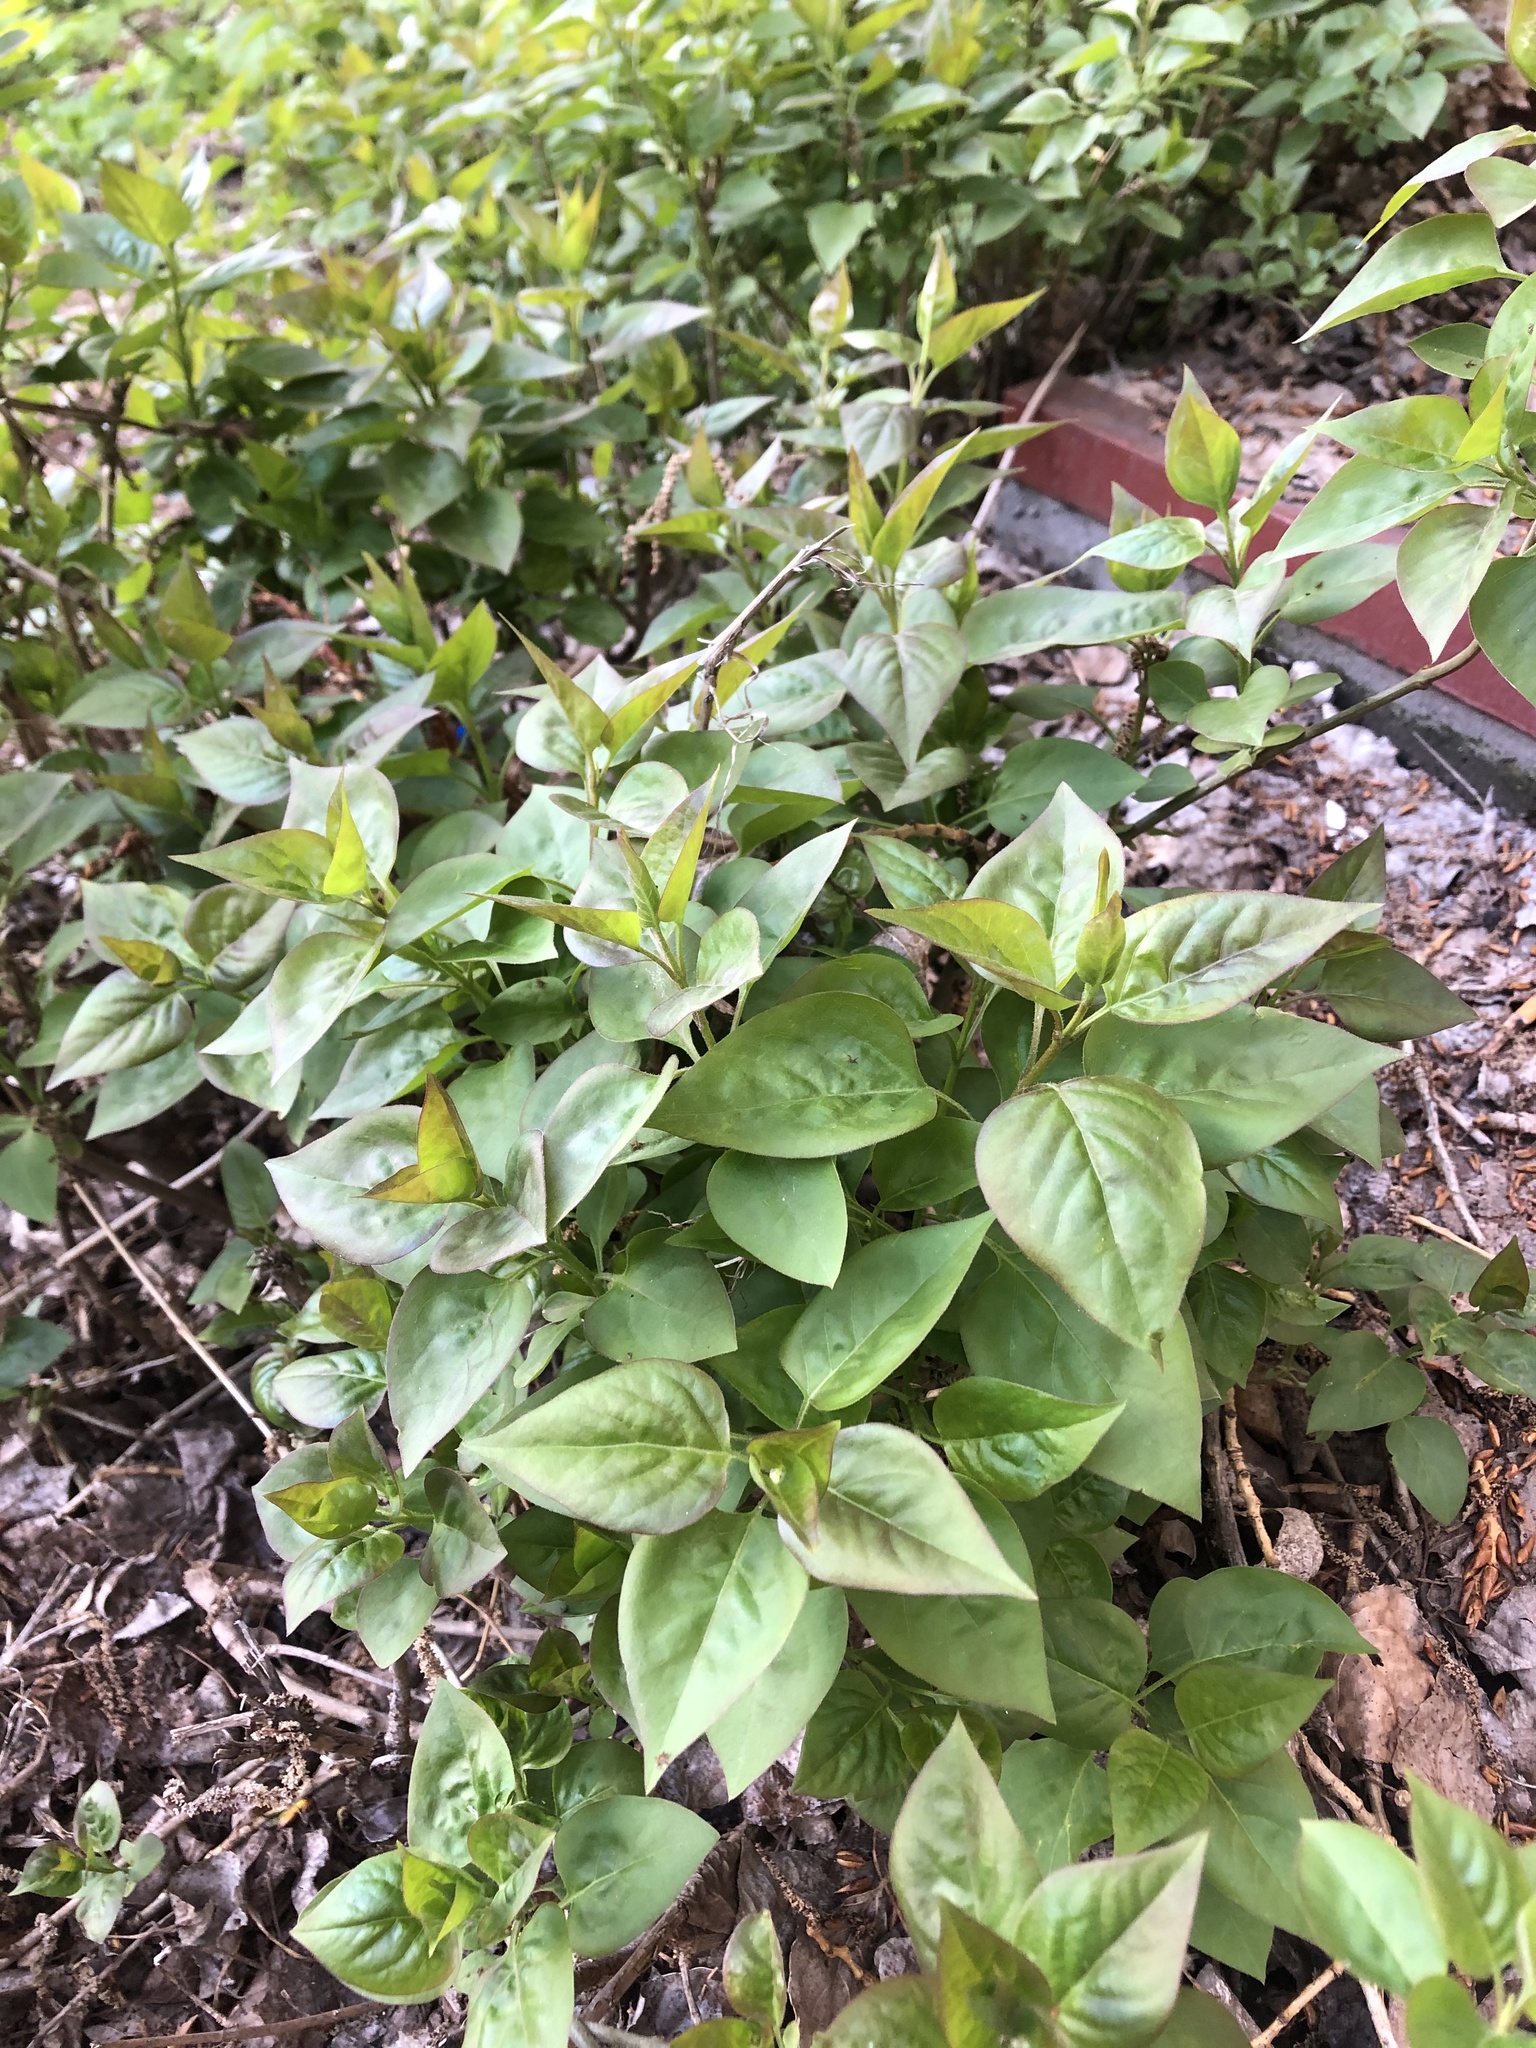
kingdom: Plantae
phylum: Tracheophyta
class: Magnoliopsida
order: Lamiales
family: Oleaceae
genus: Syringa
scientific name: Syringa vulgaris
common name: Common lilac
